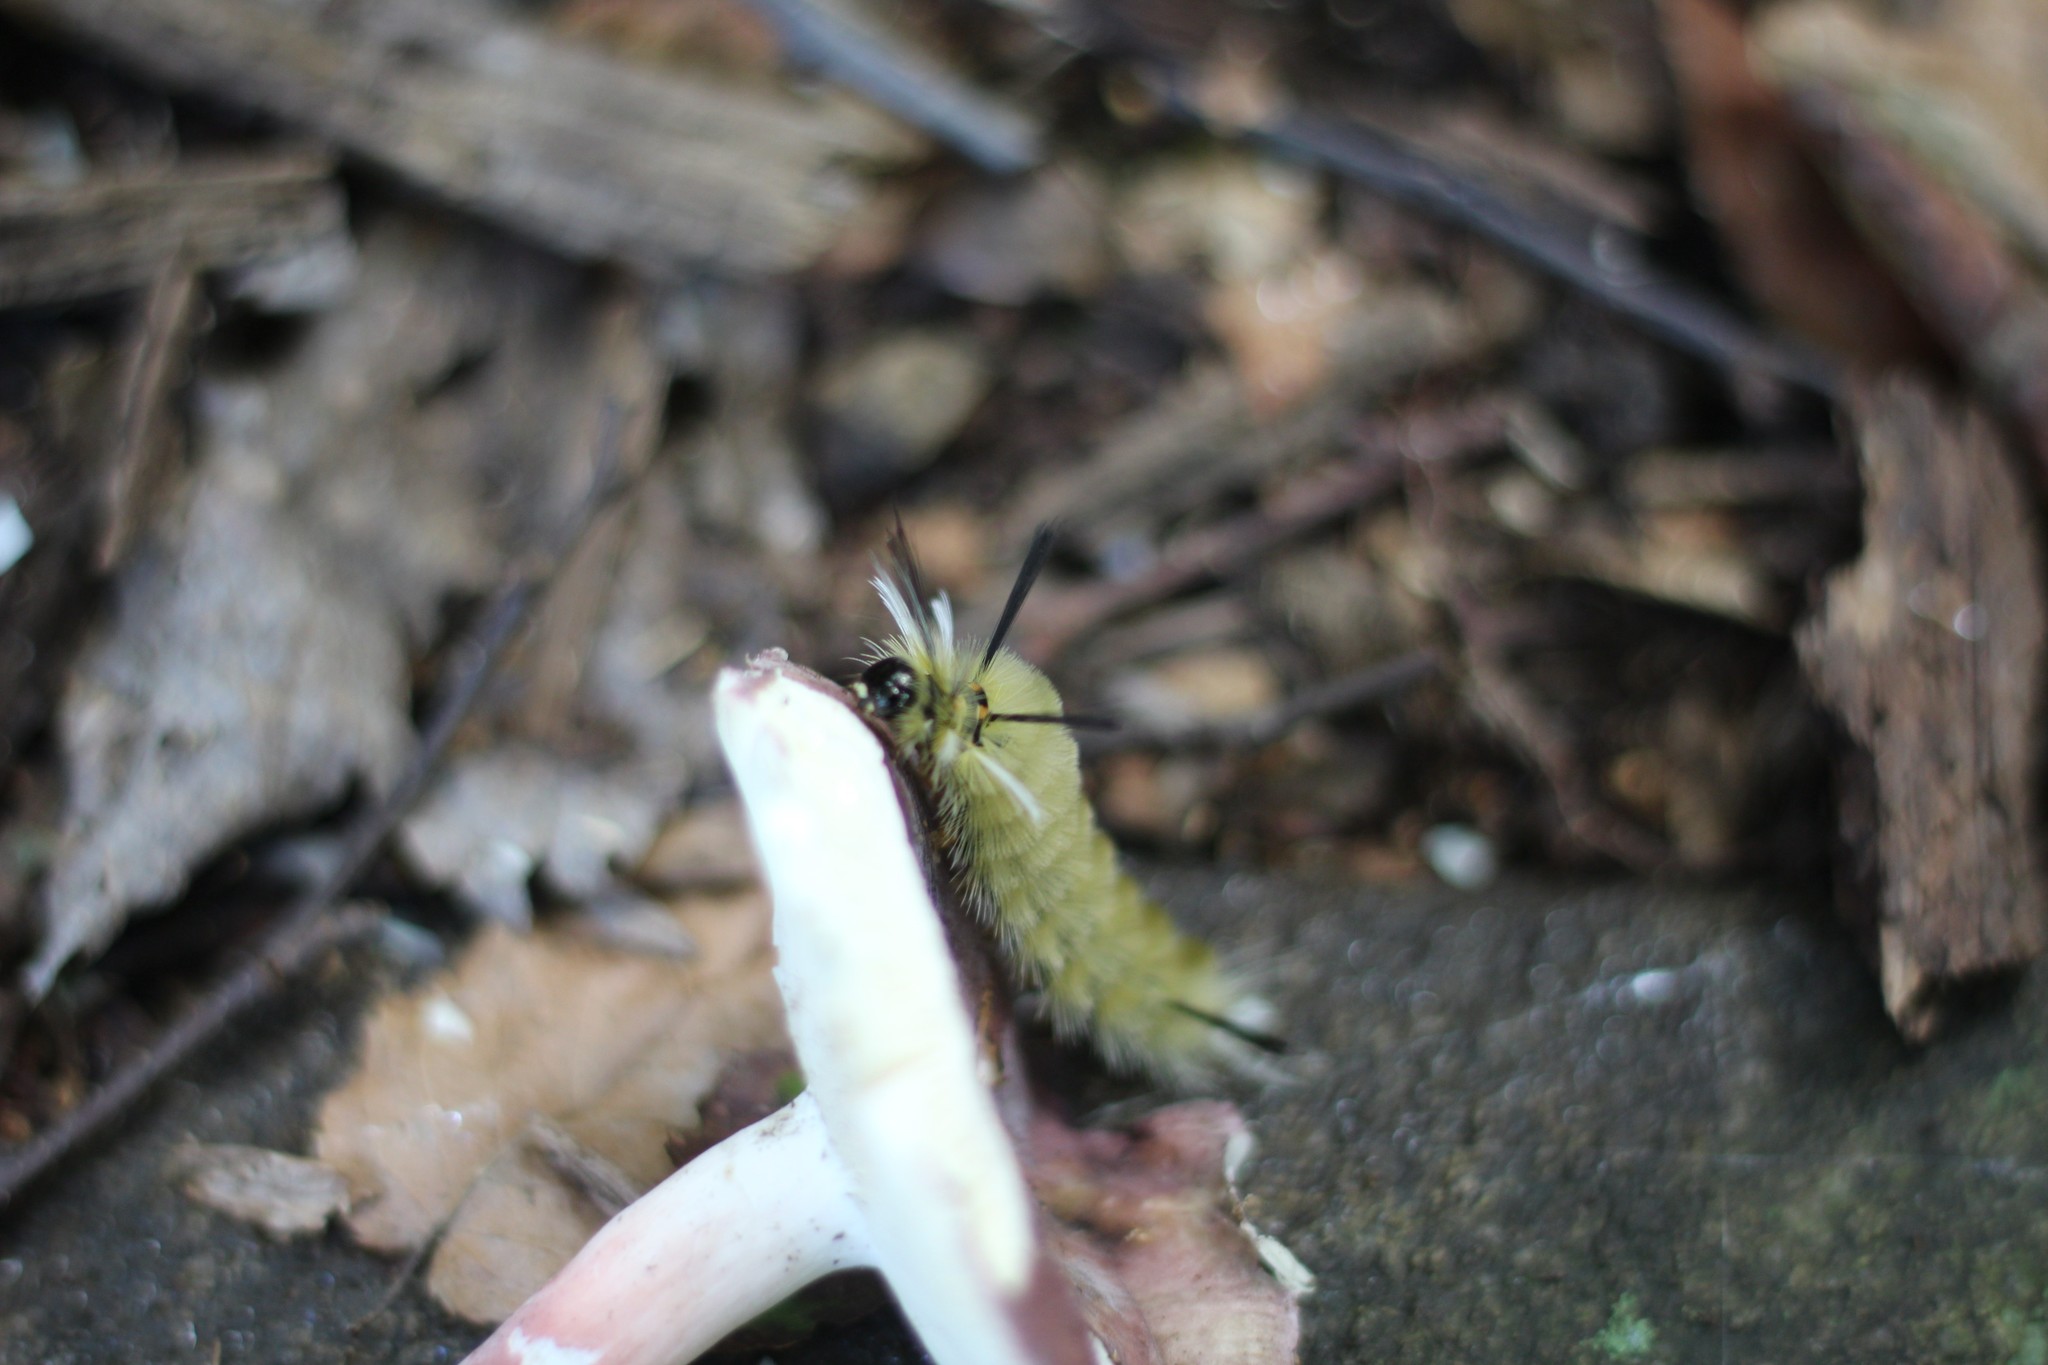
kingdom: Animalia
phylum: Arthropoda
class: Insecta
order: Lepidoptera
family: Erebidae
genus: Halysidota
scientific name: Halysidota tessellaris
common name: Banded tussock moth
